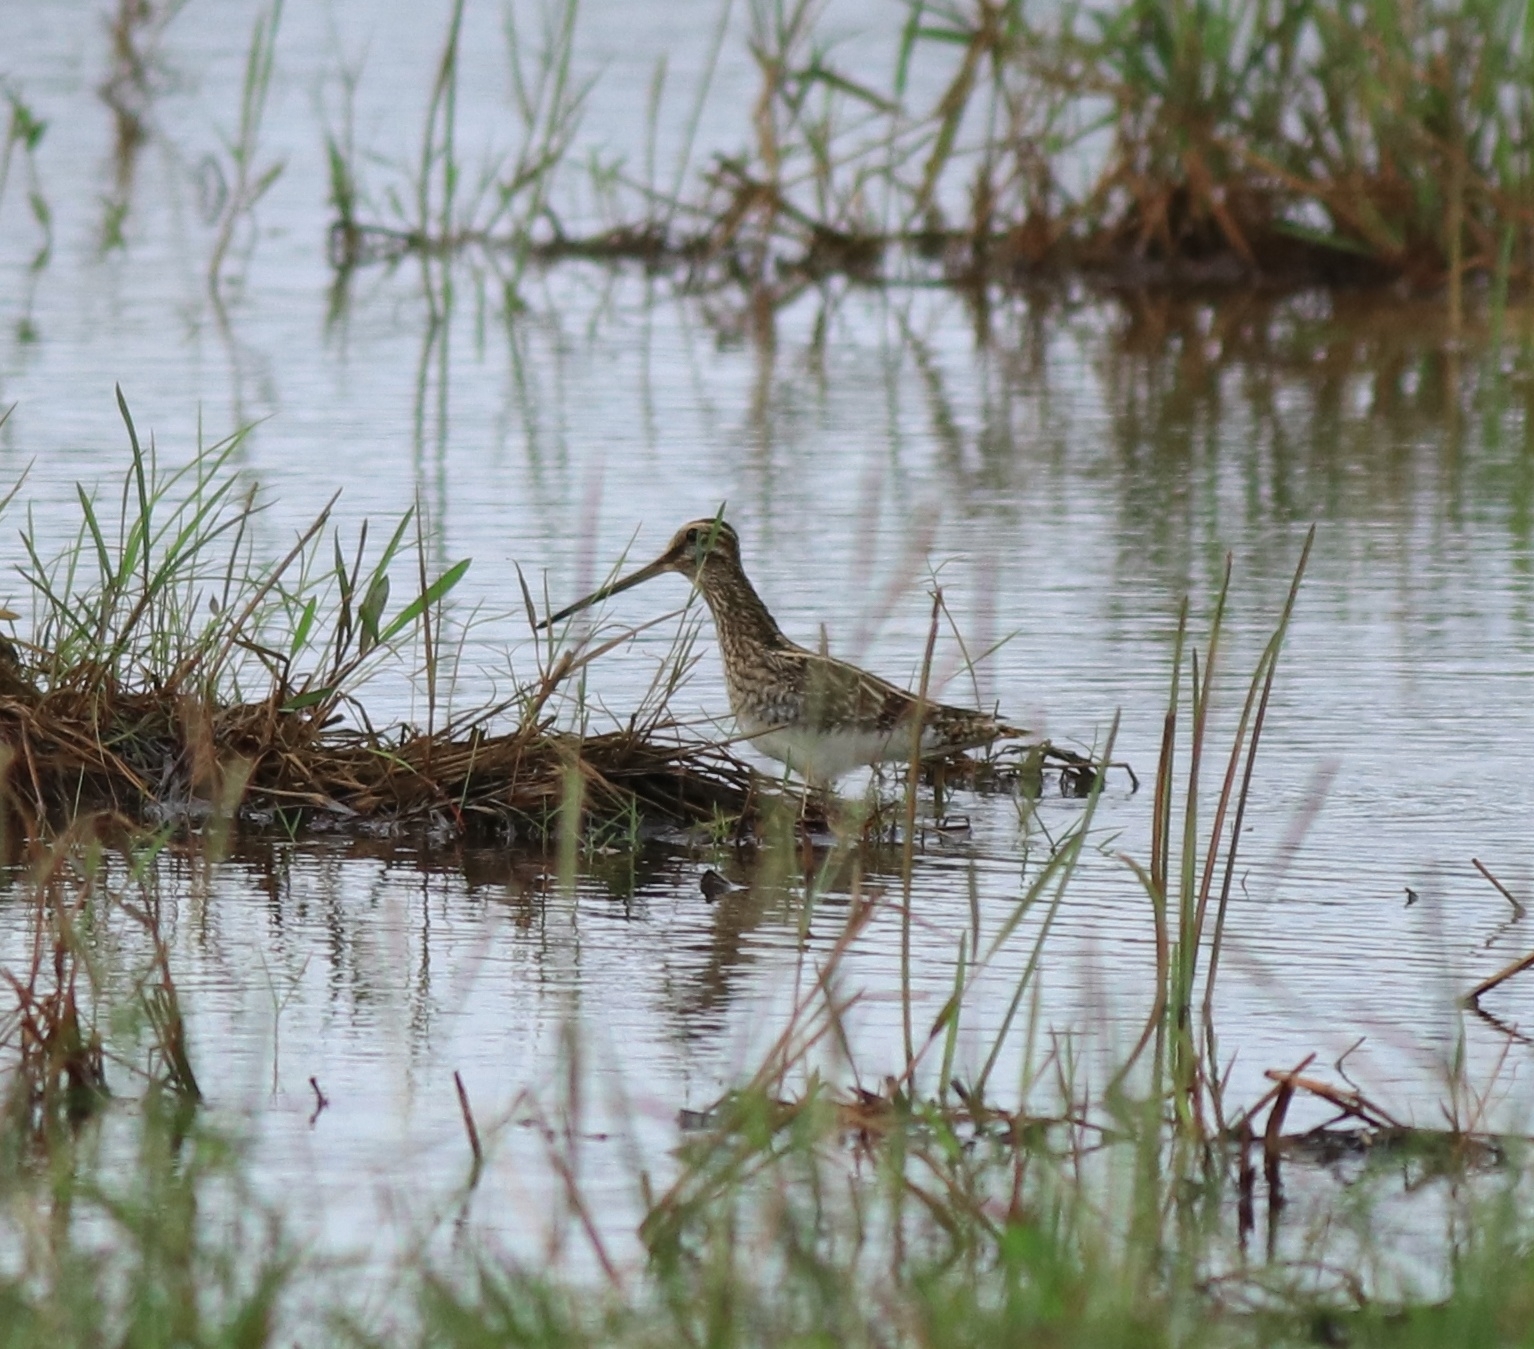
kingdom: Animalia
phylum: Chordata
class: Aves
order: Charadriiformes
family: Scolopacidae
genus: Gallinago
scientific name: Gallinago gallinago
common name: Common snipe
